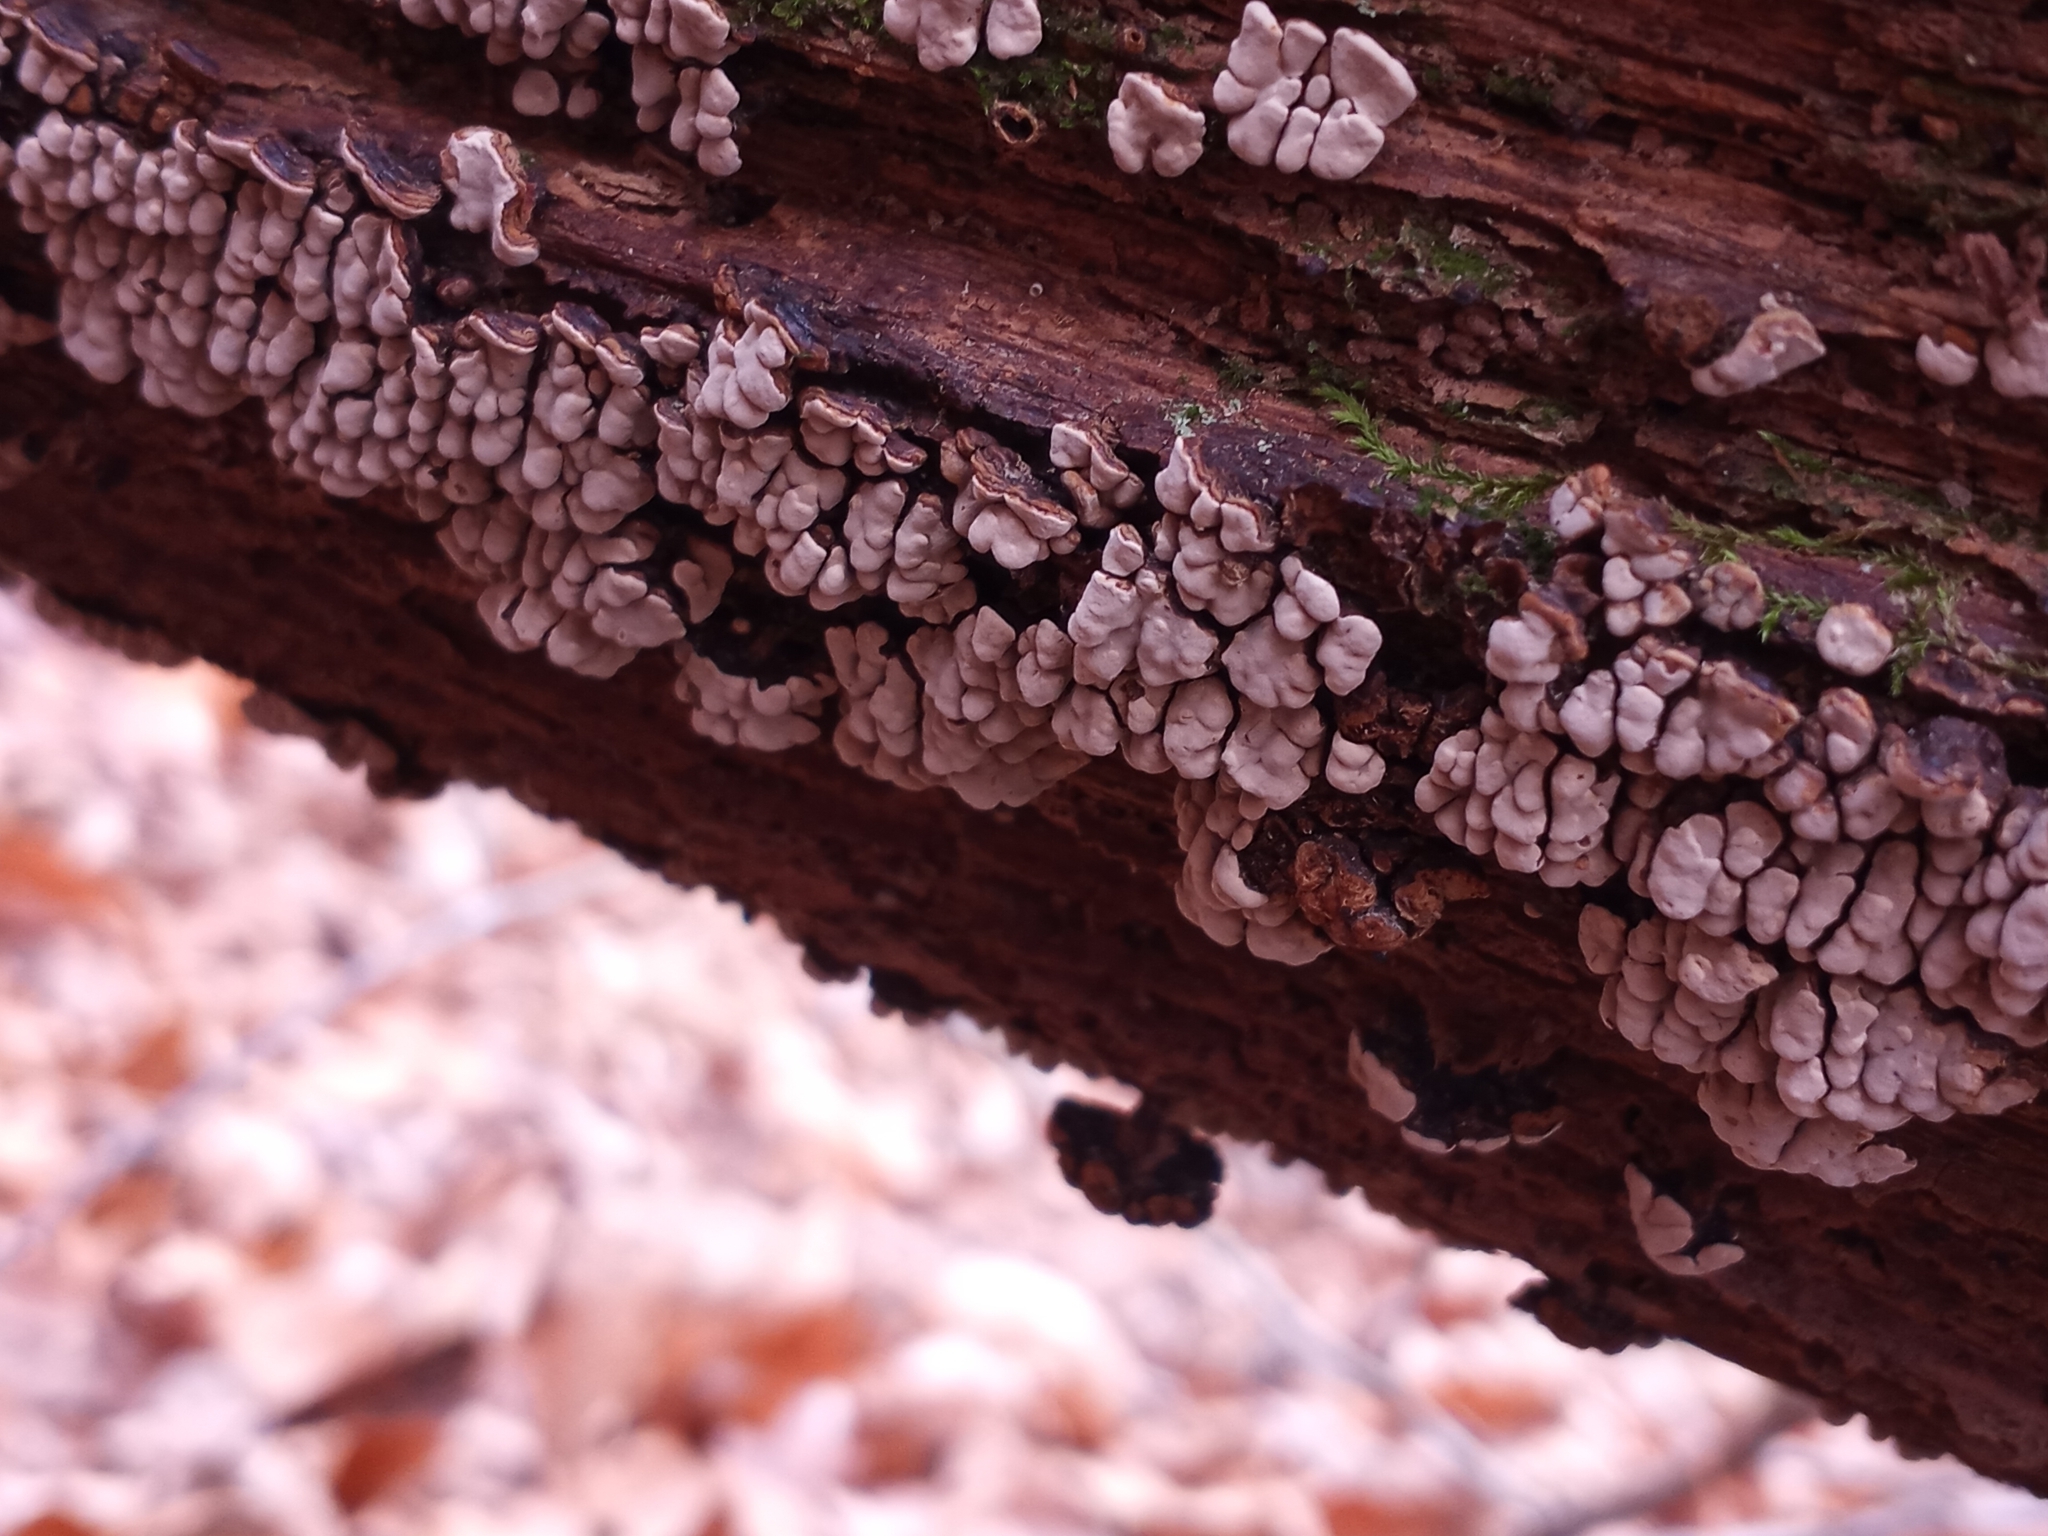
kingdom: Fungi
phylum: Basidiomycota
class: Agaricomycetes
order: Russulales
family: Stereaceae
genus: Xylobolus
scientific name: Xylobolus frustulatus
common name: Ceramic parchment
